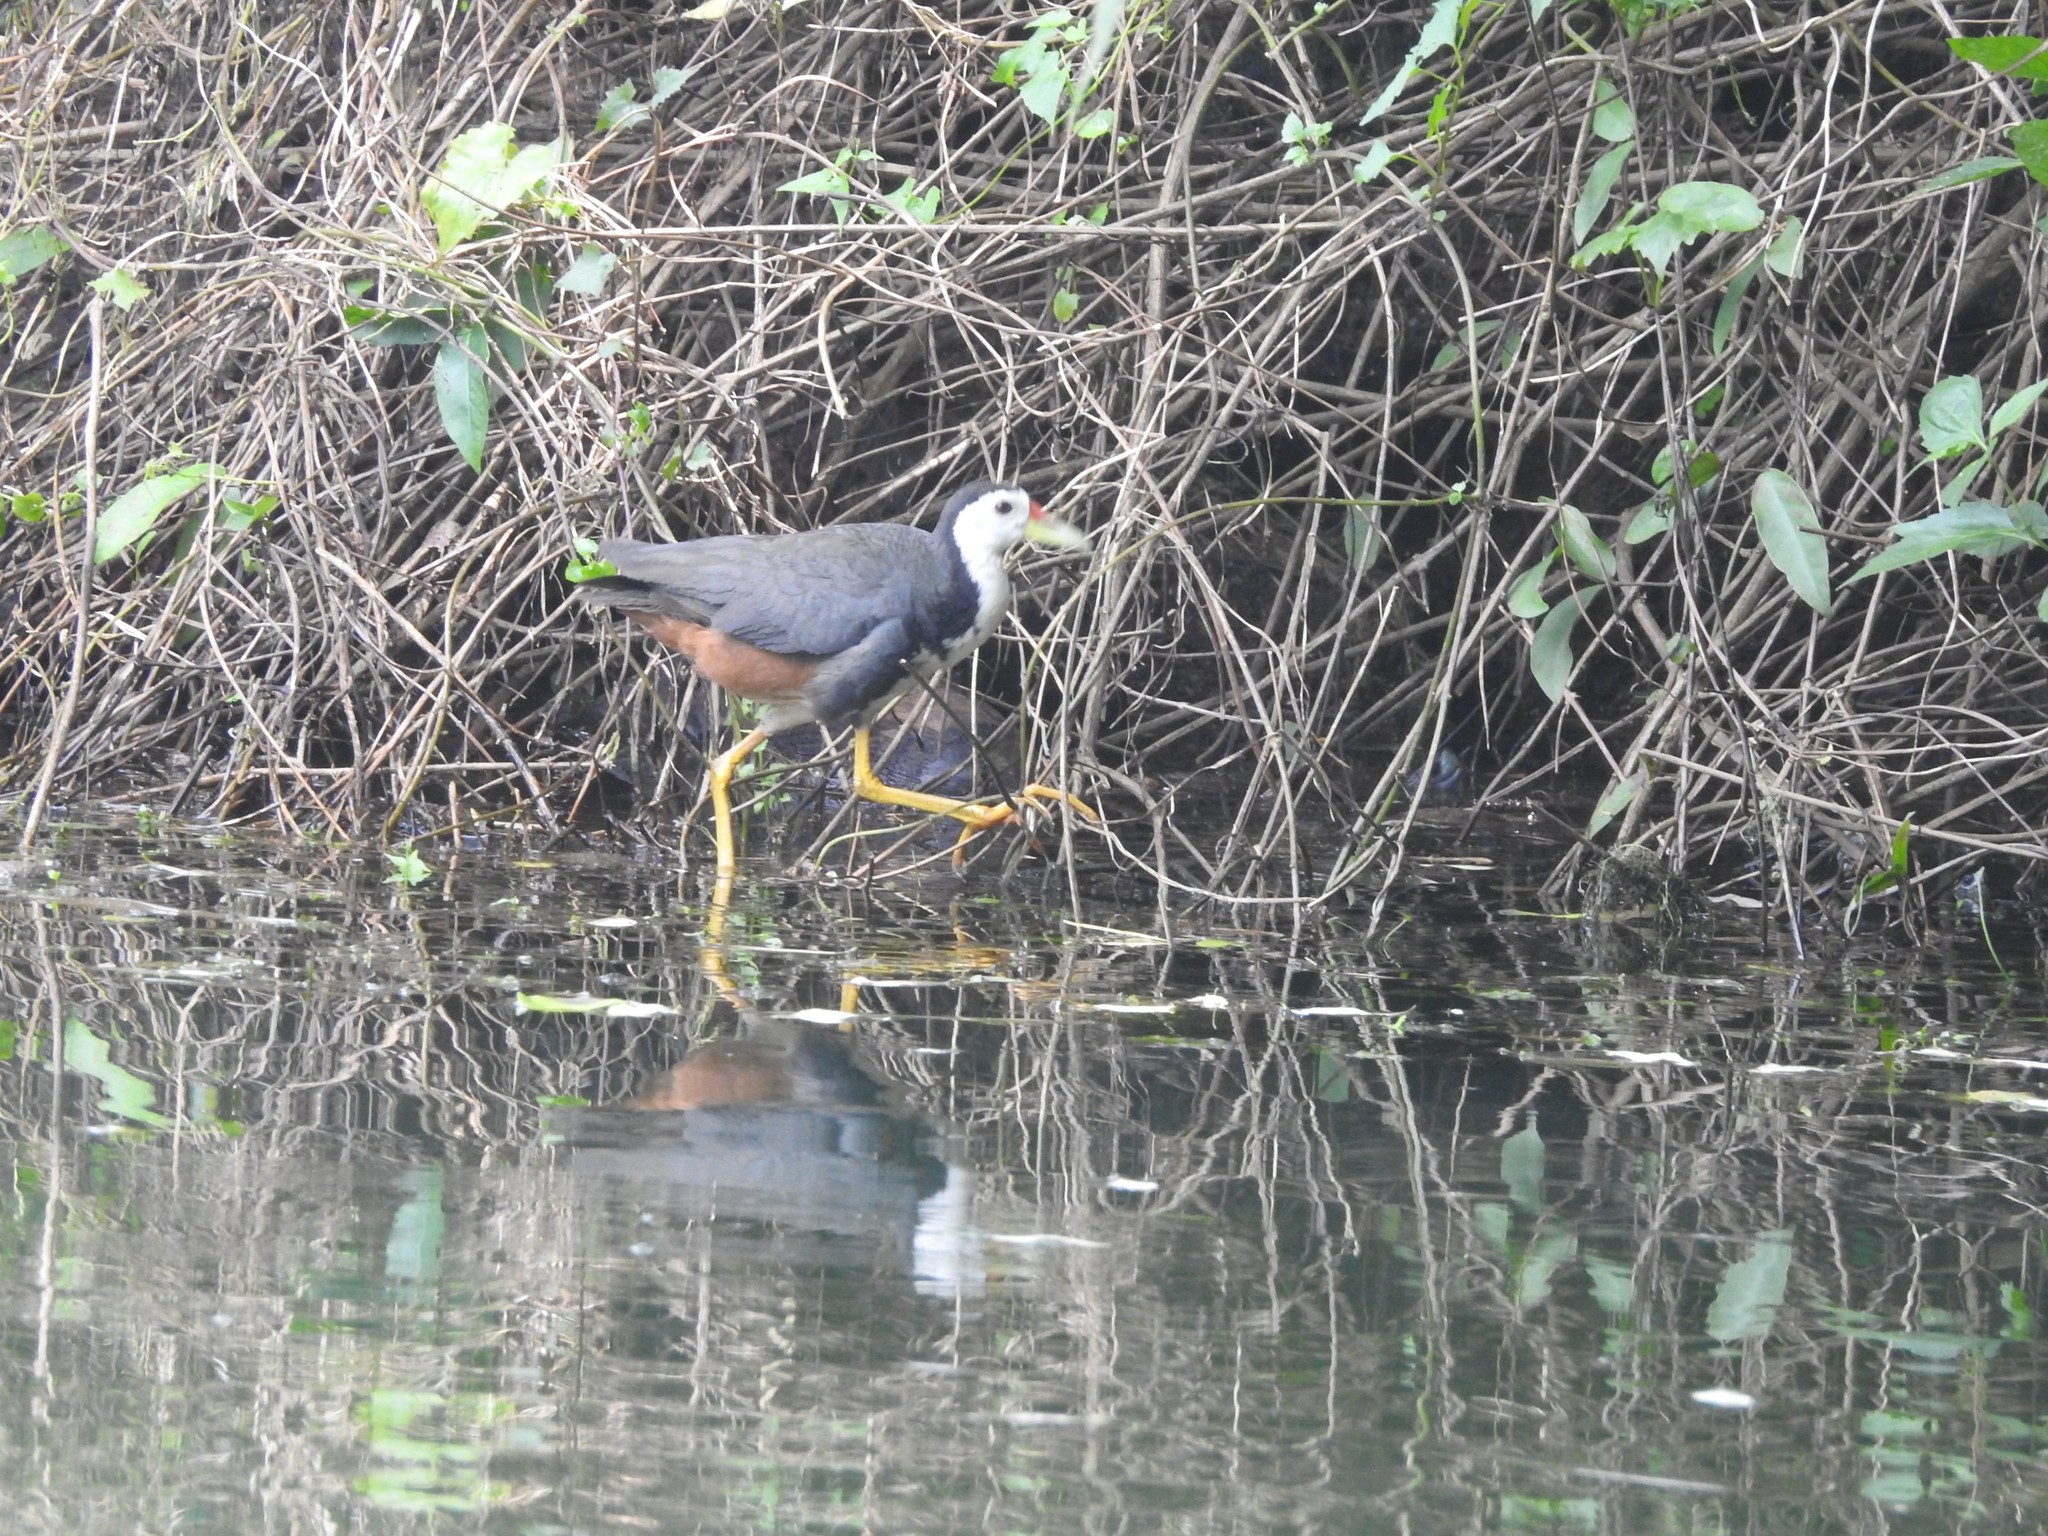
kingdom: Animalia
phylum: Chordata
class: Aves
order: Gruiformes
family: Rallidae
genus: Amaurornis
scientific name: Amaurornis phoenicurus
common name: White-breasted waterhen
